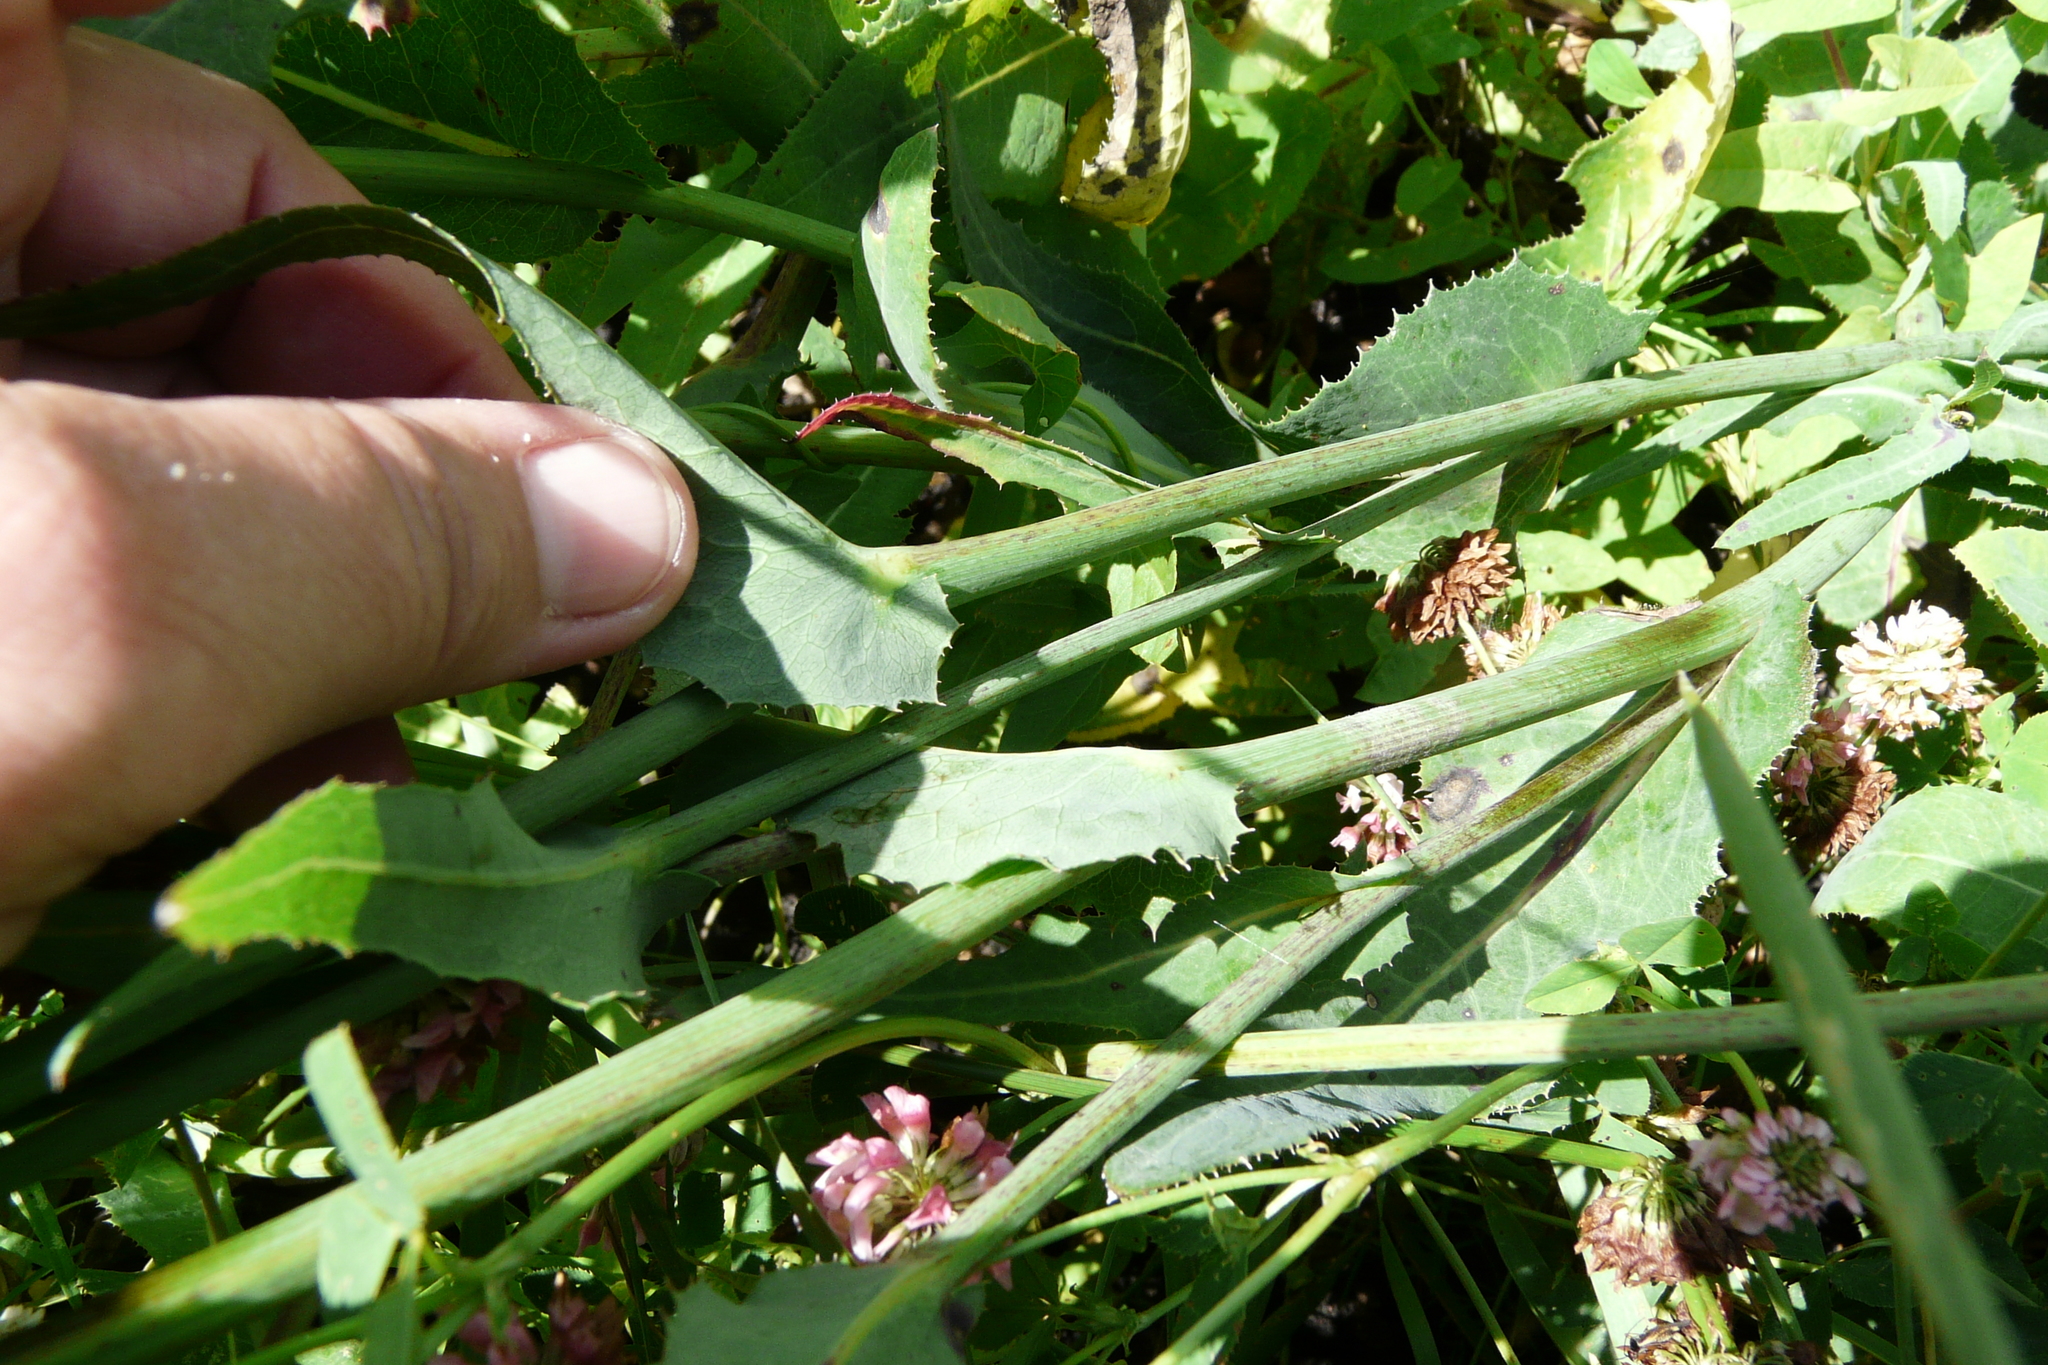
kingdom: Plantae
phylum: Tracheophyta
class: Magnoliopsida
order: Asterales
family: Asteraceae
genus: Sonchus
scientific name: Sonchus arvensis
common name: Perennial sow-thistle
